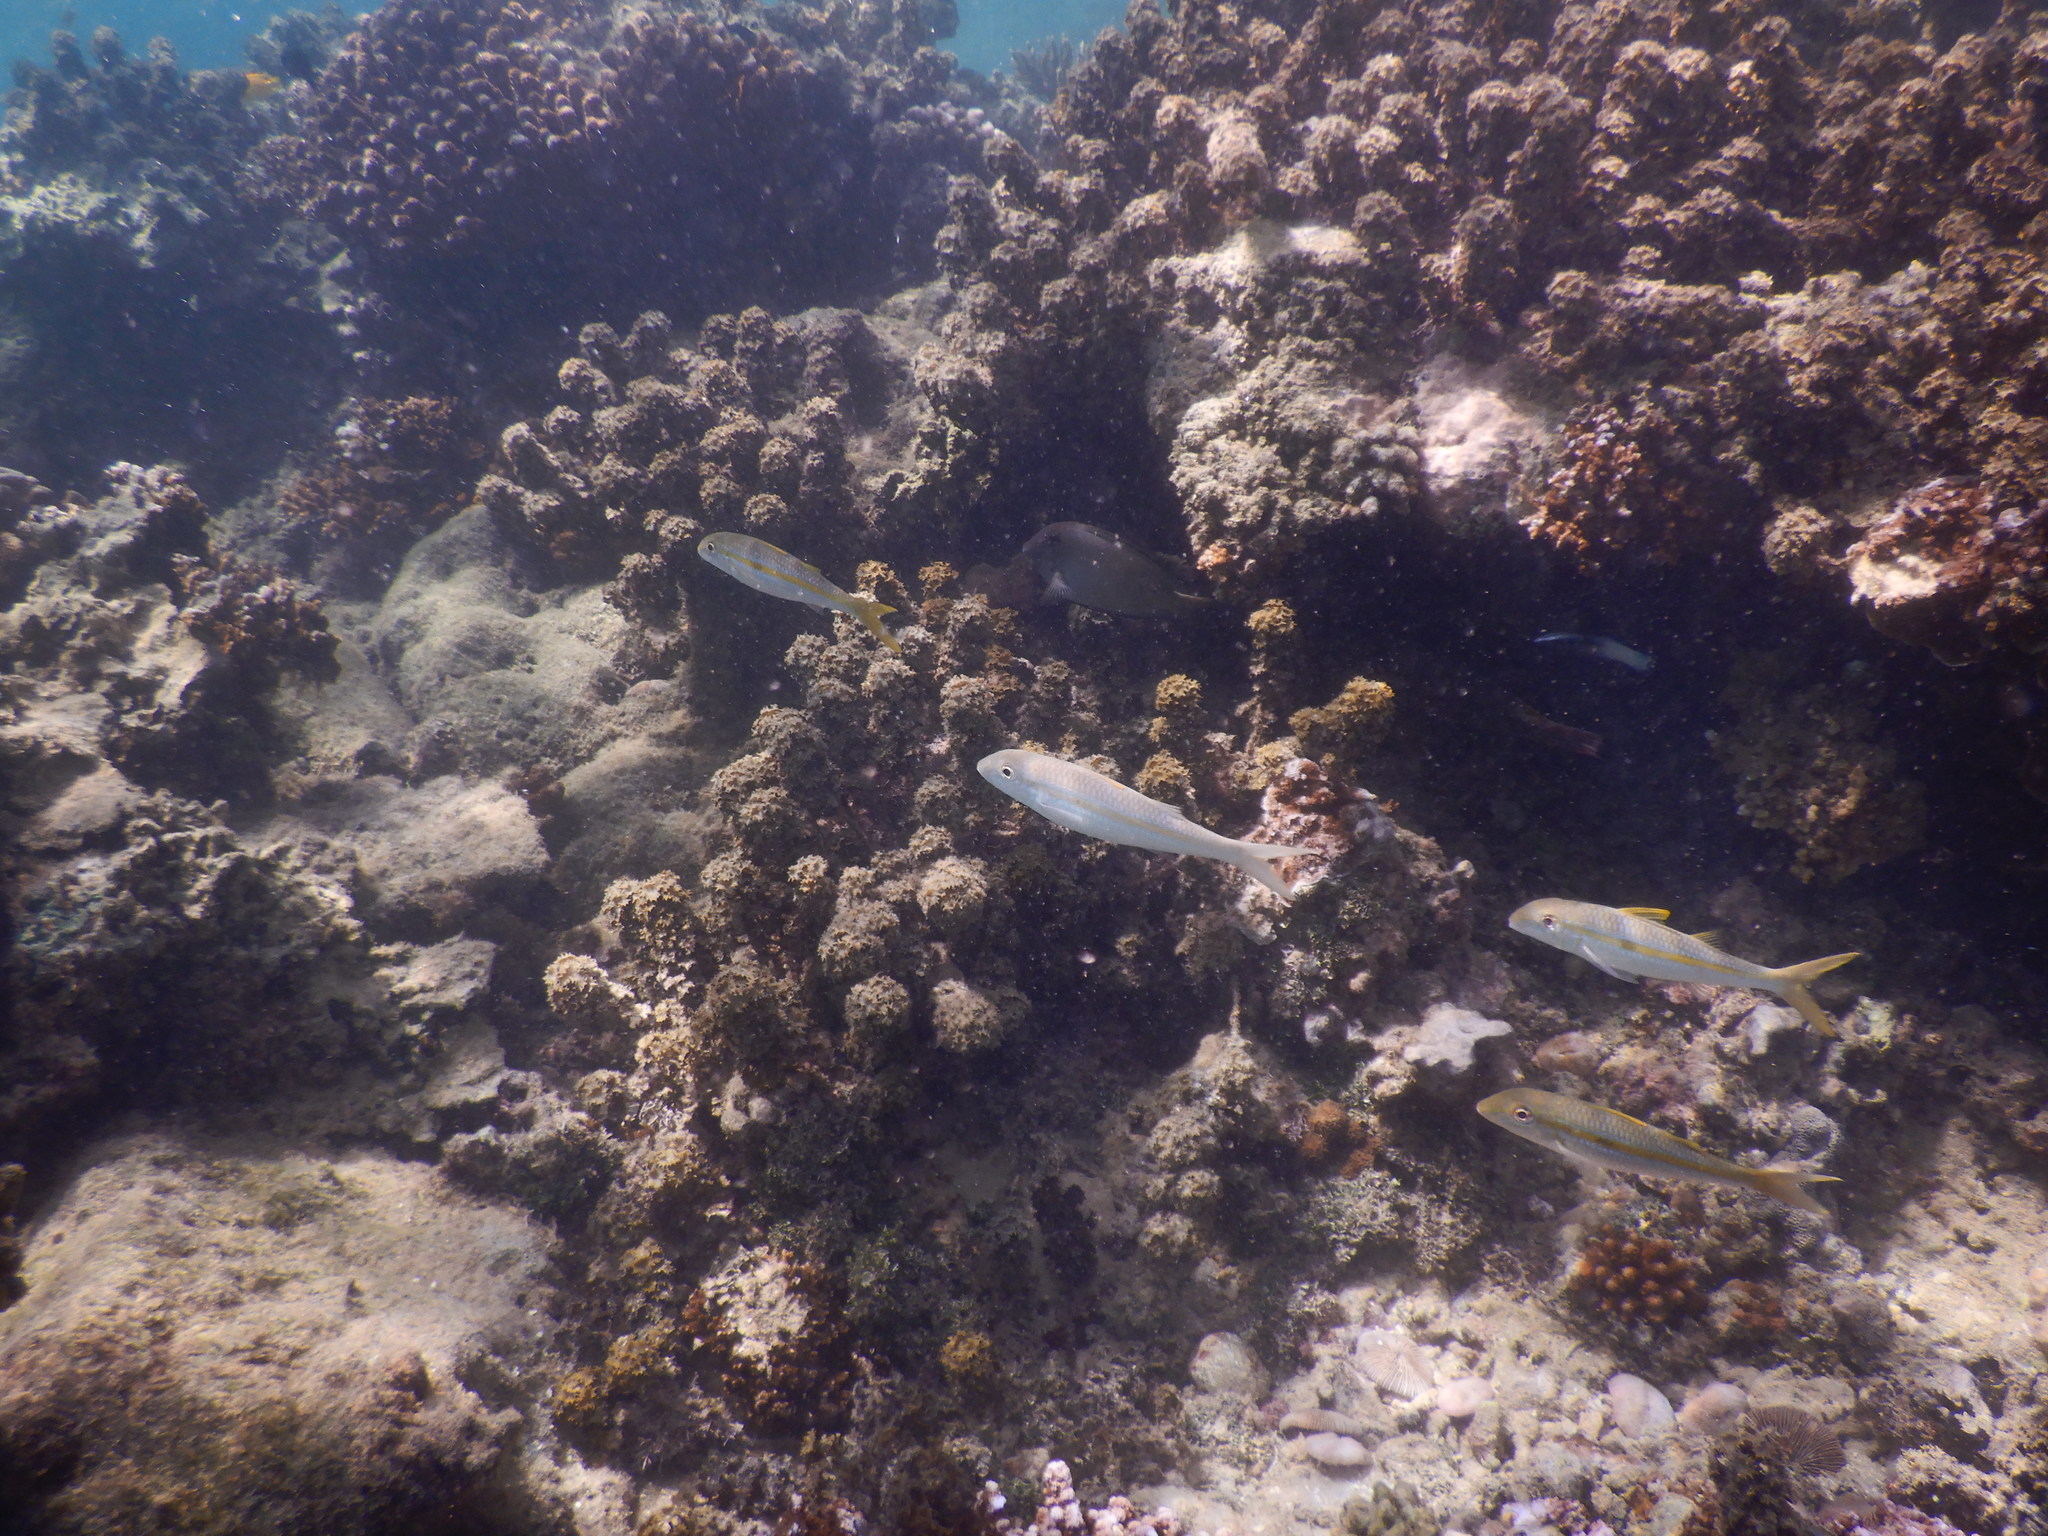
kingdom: Animalia
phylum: Chordata
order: Perciformes
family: Mullidae
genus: Mulloidichthys
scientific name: Mulloidichthys flavolineatus
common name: Yellowstripe goatfish
